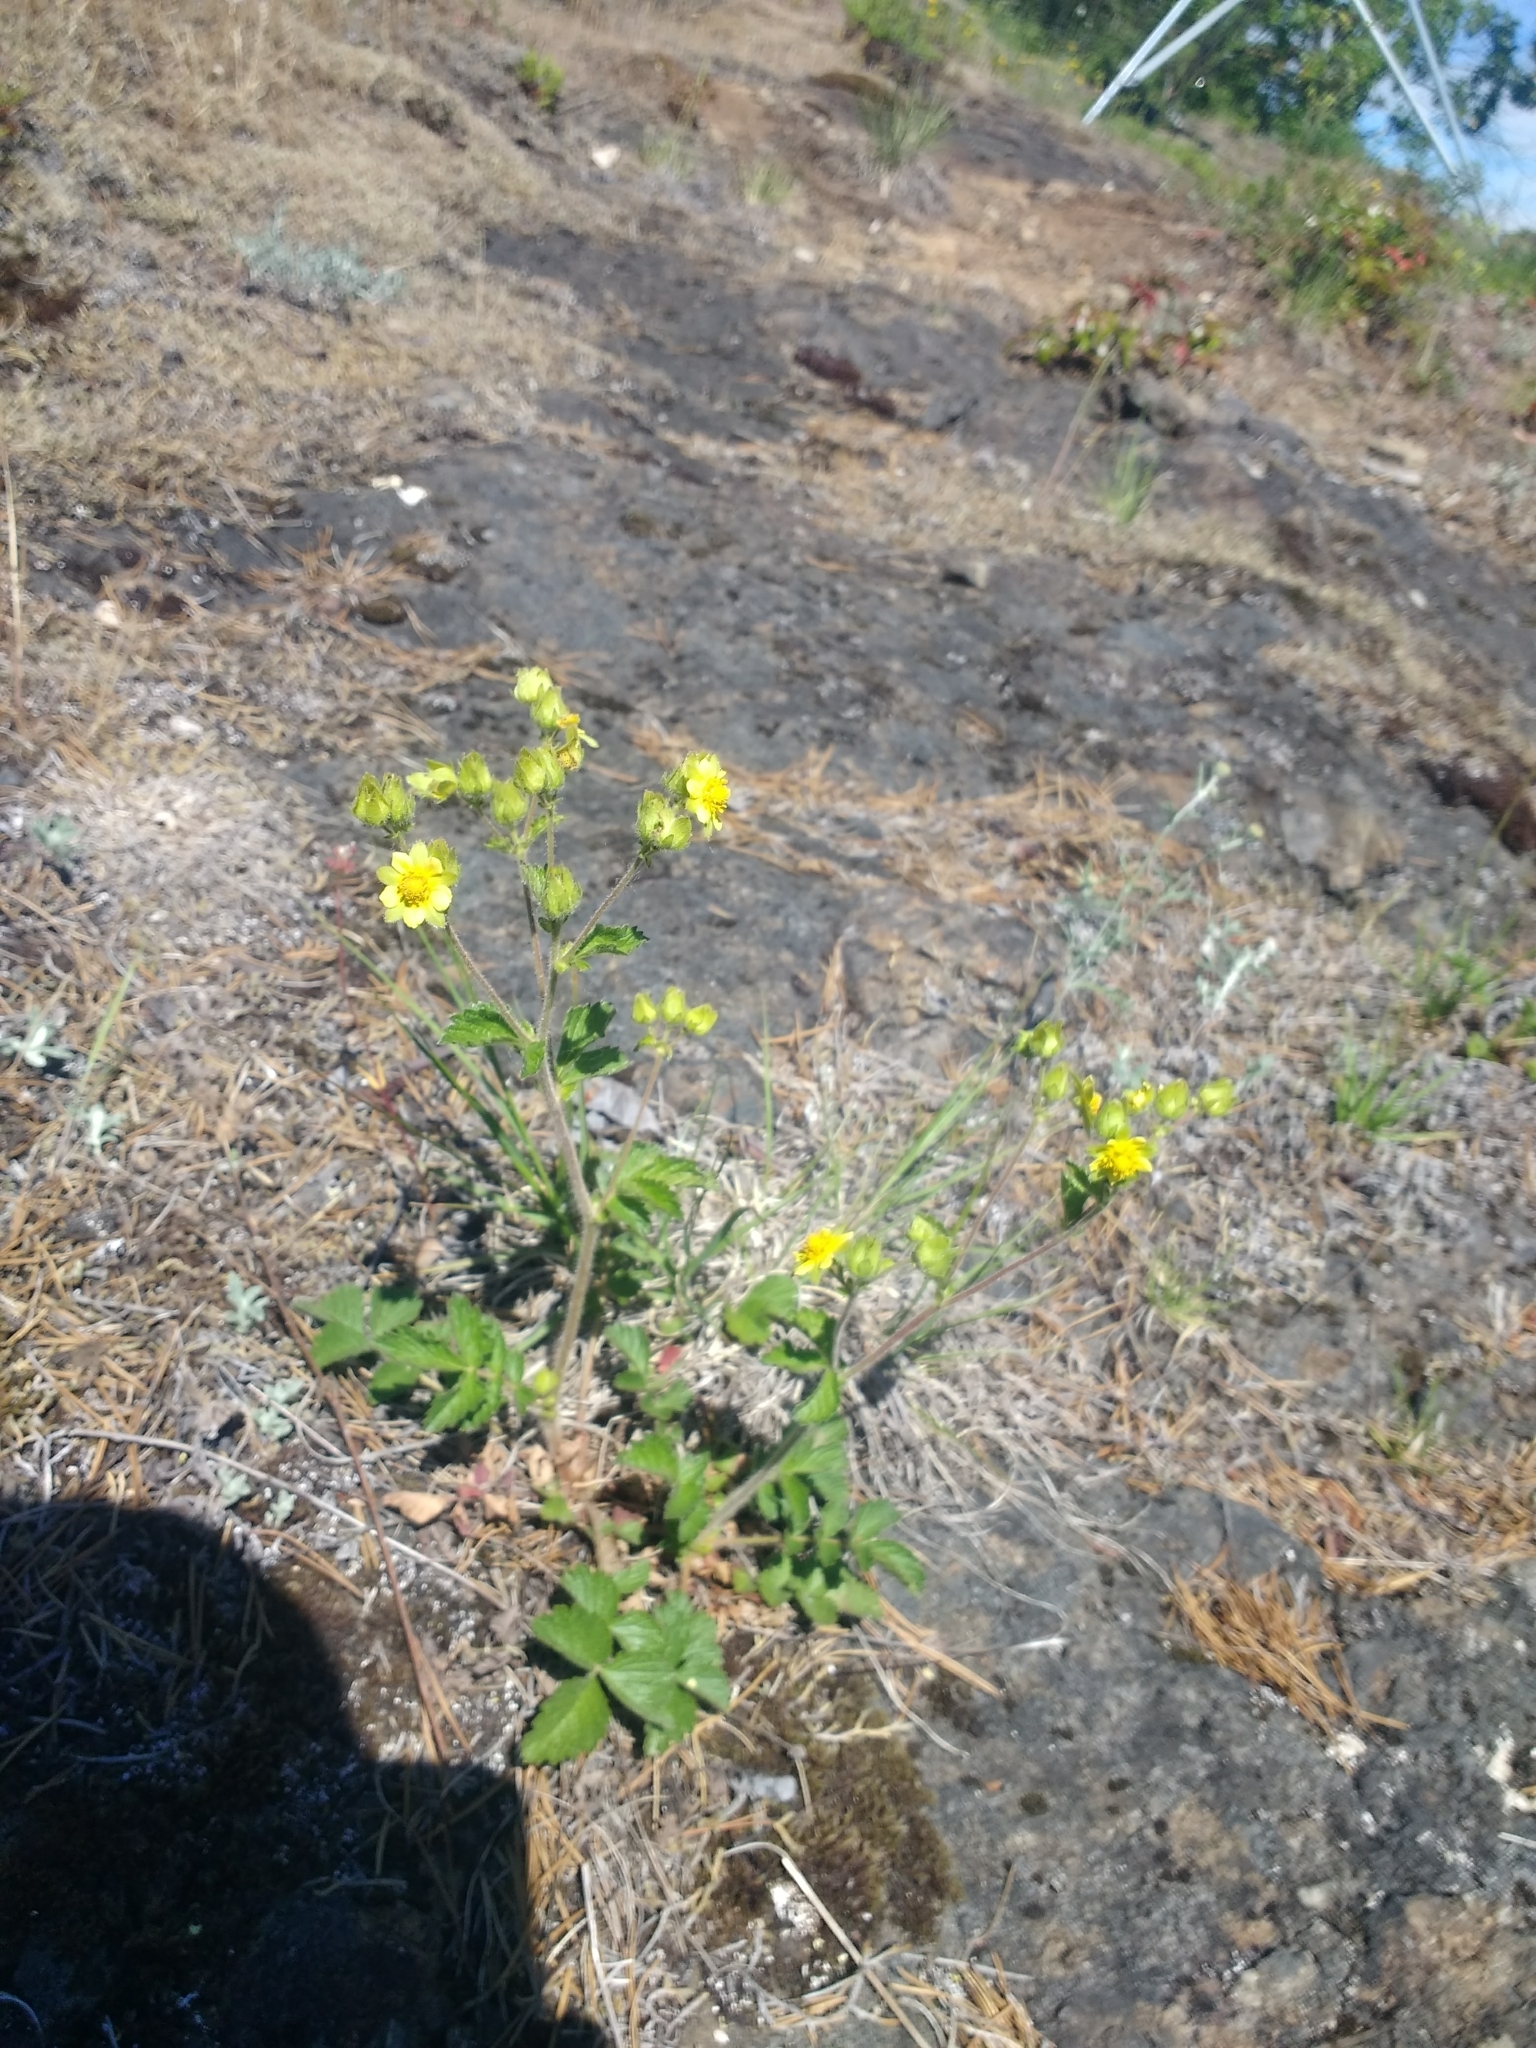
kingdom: Plantae
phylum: Tracheophyta
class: Magnoliopsida
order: Rosales
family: Rosaceae
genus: Drymocallis
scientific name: Drymocallis glandulosa
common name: Sticky cinquefoil
